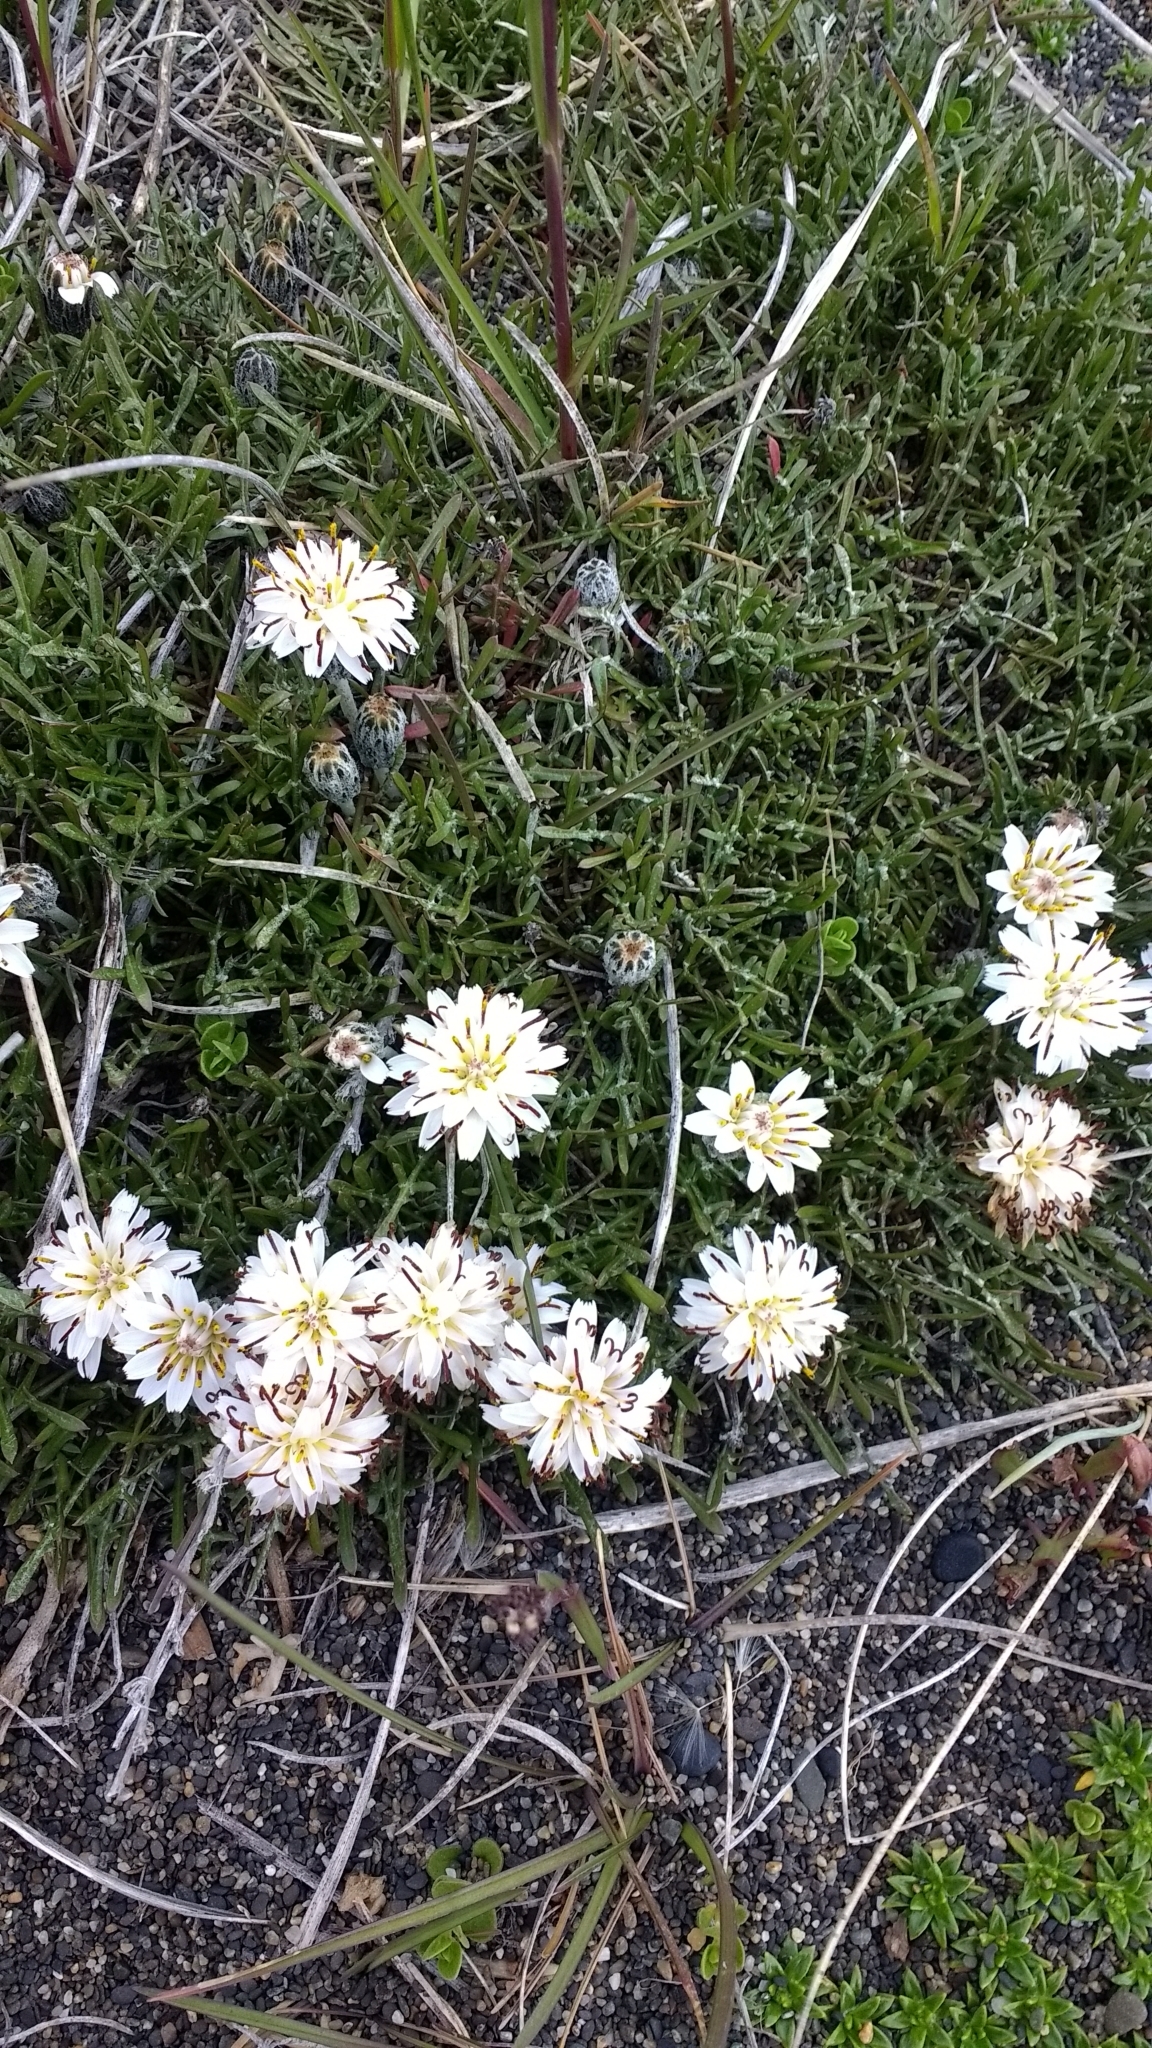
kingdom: Plantae
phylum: Tracheophyta
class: Magnoliopsida
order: Asterales
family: Asteraceae
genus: Hypochaeris
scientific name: Hypochaeris incana
